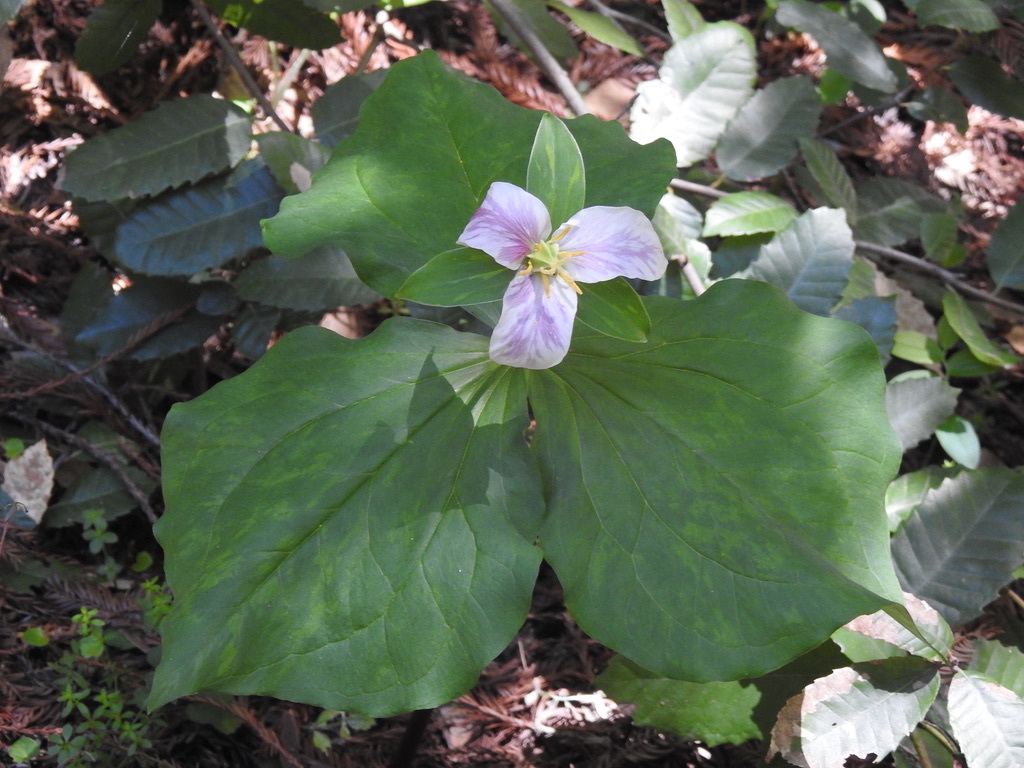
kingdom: Plantae
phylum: Tracheophyta
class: Liliopsida
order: Liliales
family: Melanthiaceae
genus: Trillium
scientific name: Trillium ovatum
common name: Pacific trillium
